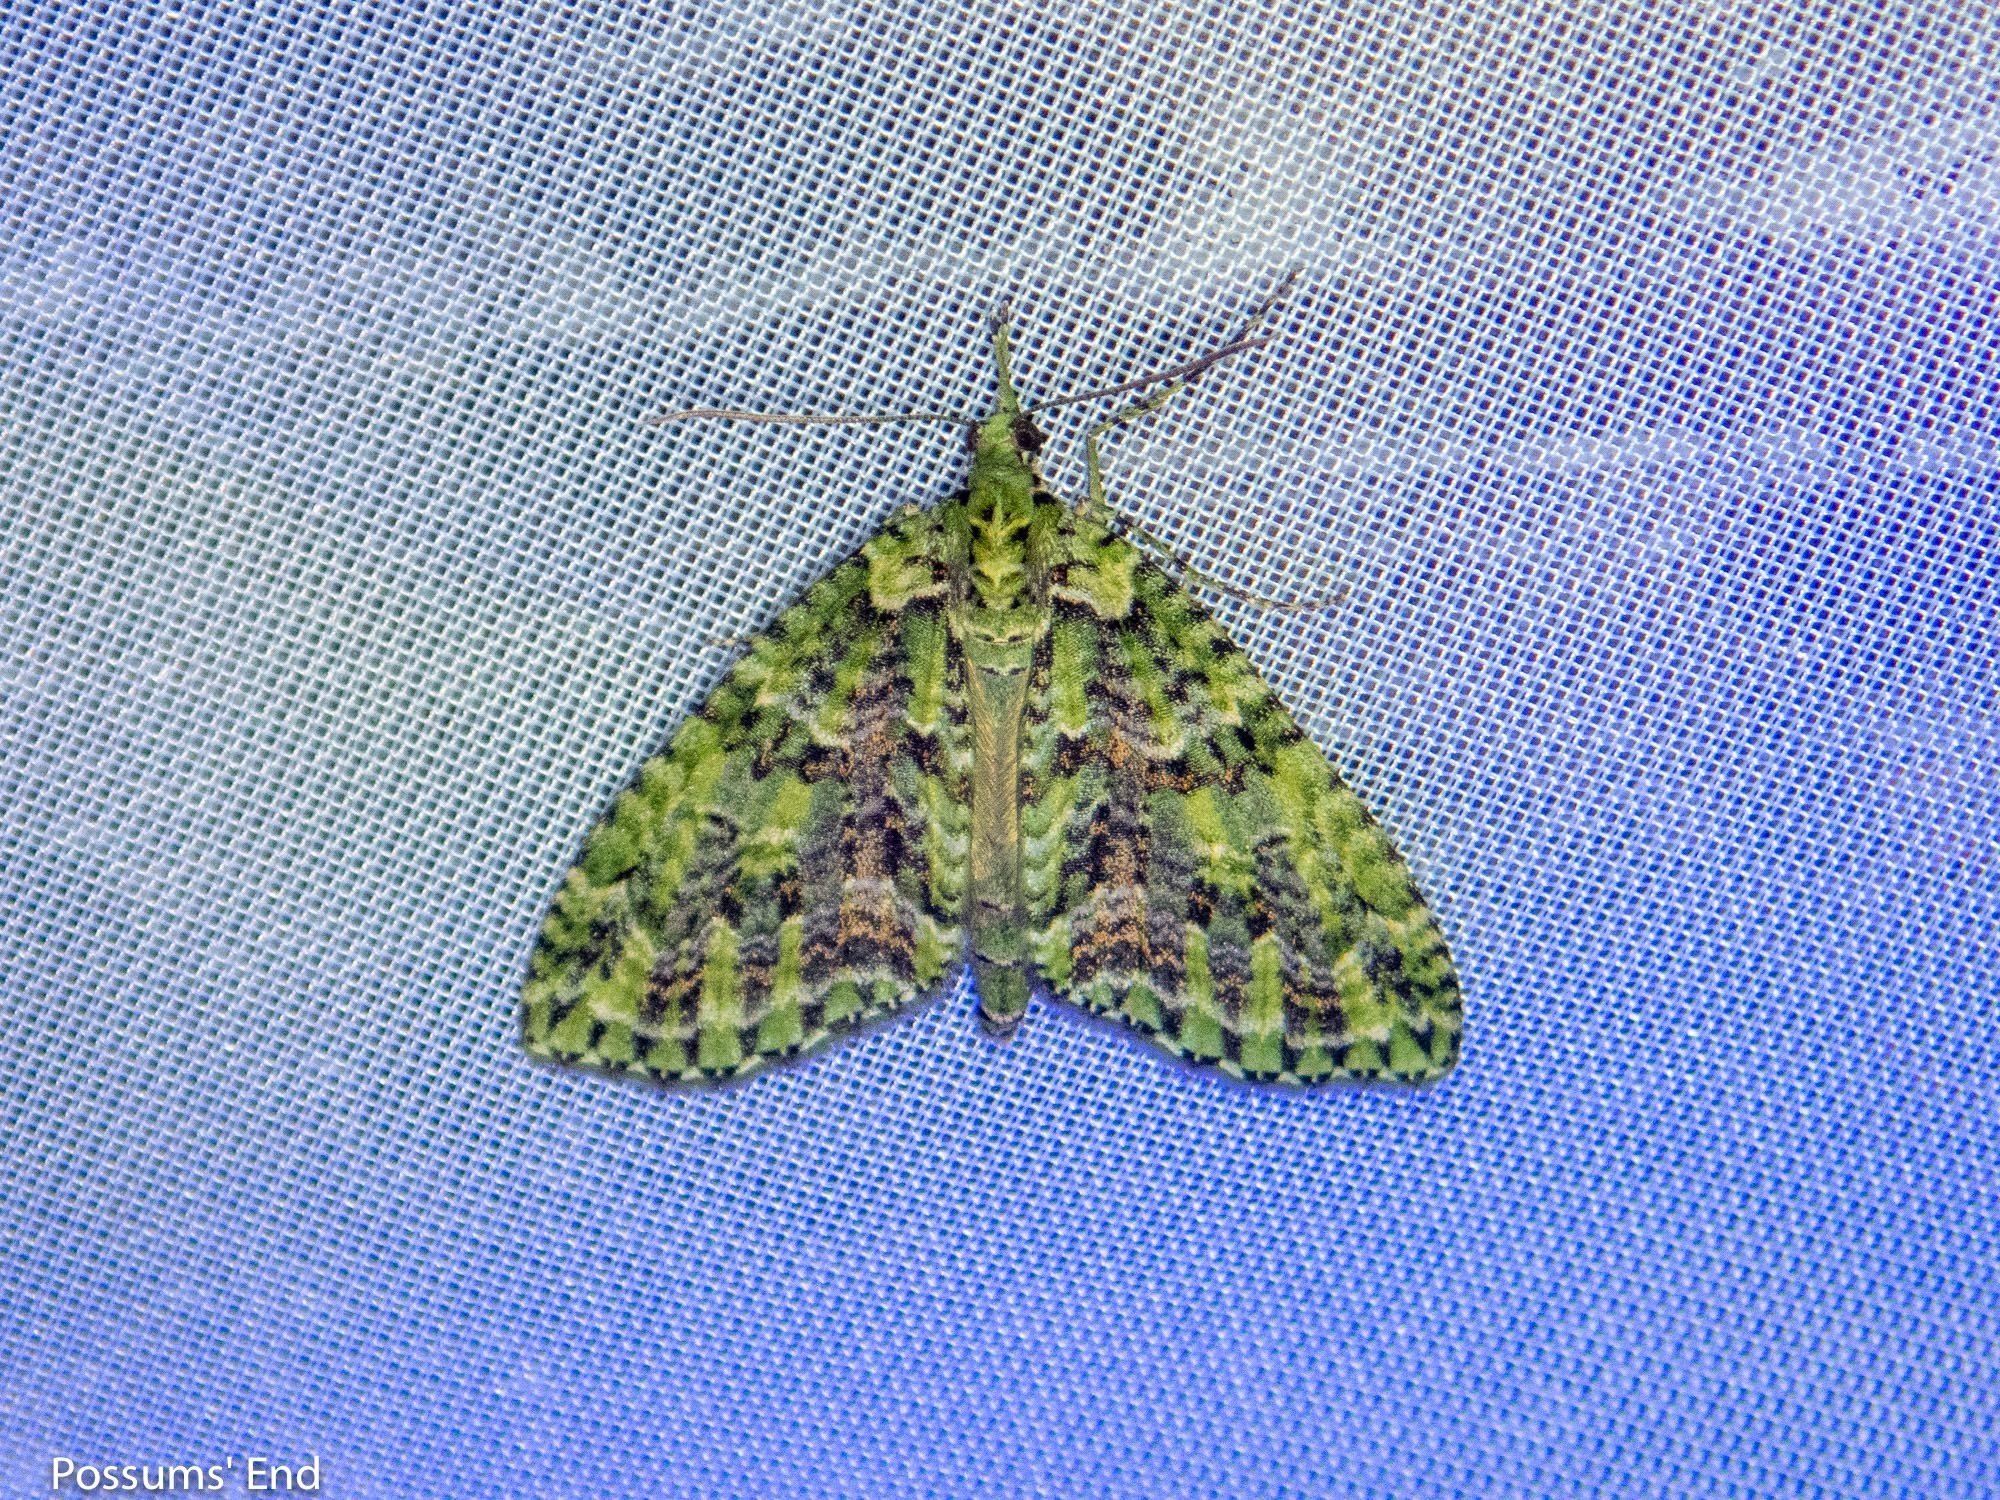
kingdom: Animalia
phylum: Arthropoda
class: Insecta
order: Lepidoptera
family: Geometridae
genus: Tatosoma
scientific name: Tatosoma tipulata
